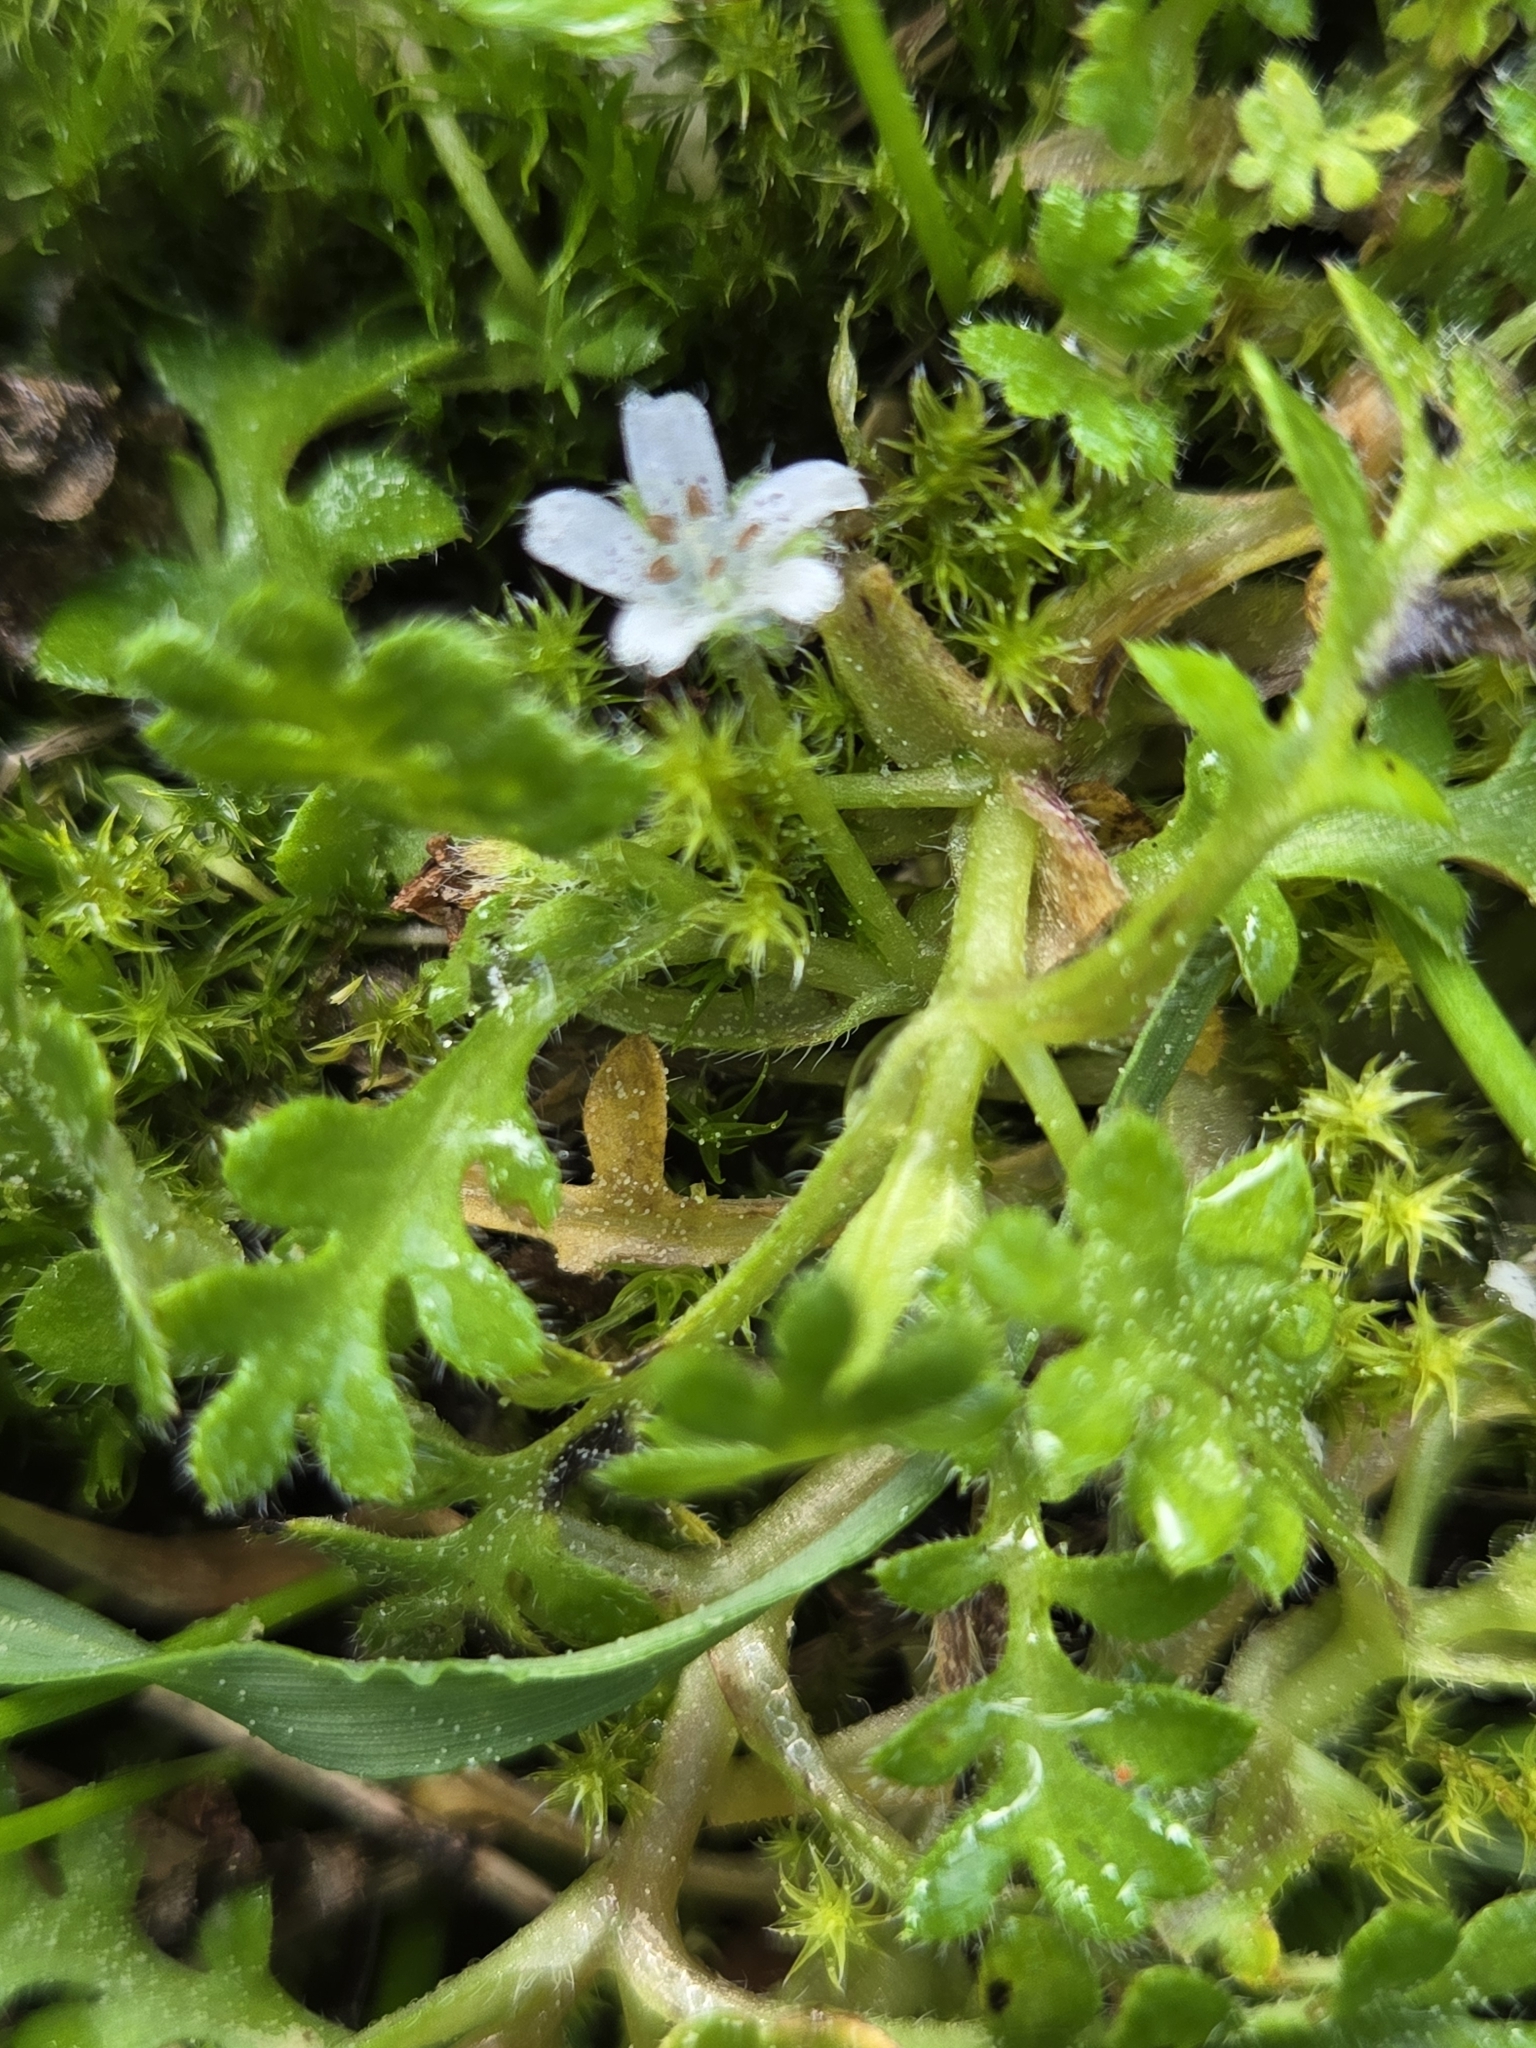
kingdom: Plantae
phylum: Tracheophyta
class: Magnoliopsida
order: Boraginales
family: Hydrophyllaceae
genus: Nemophila
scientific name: Nemophila pedunculata
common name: Little-foot baby-blue-eyes
